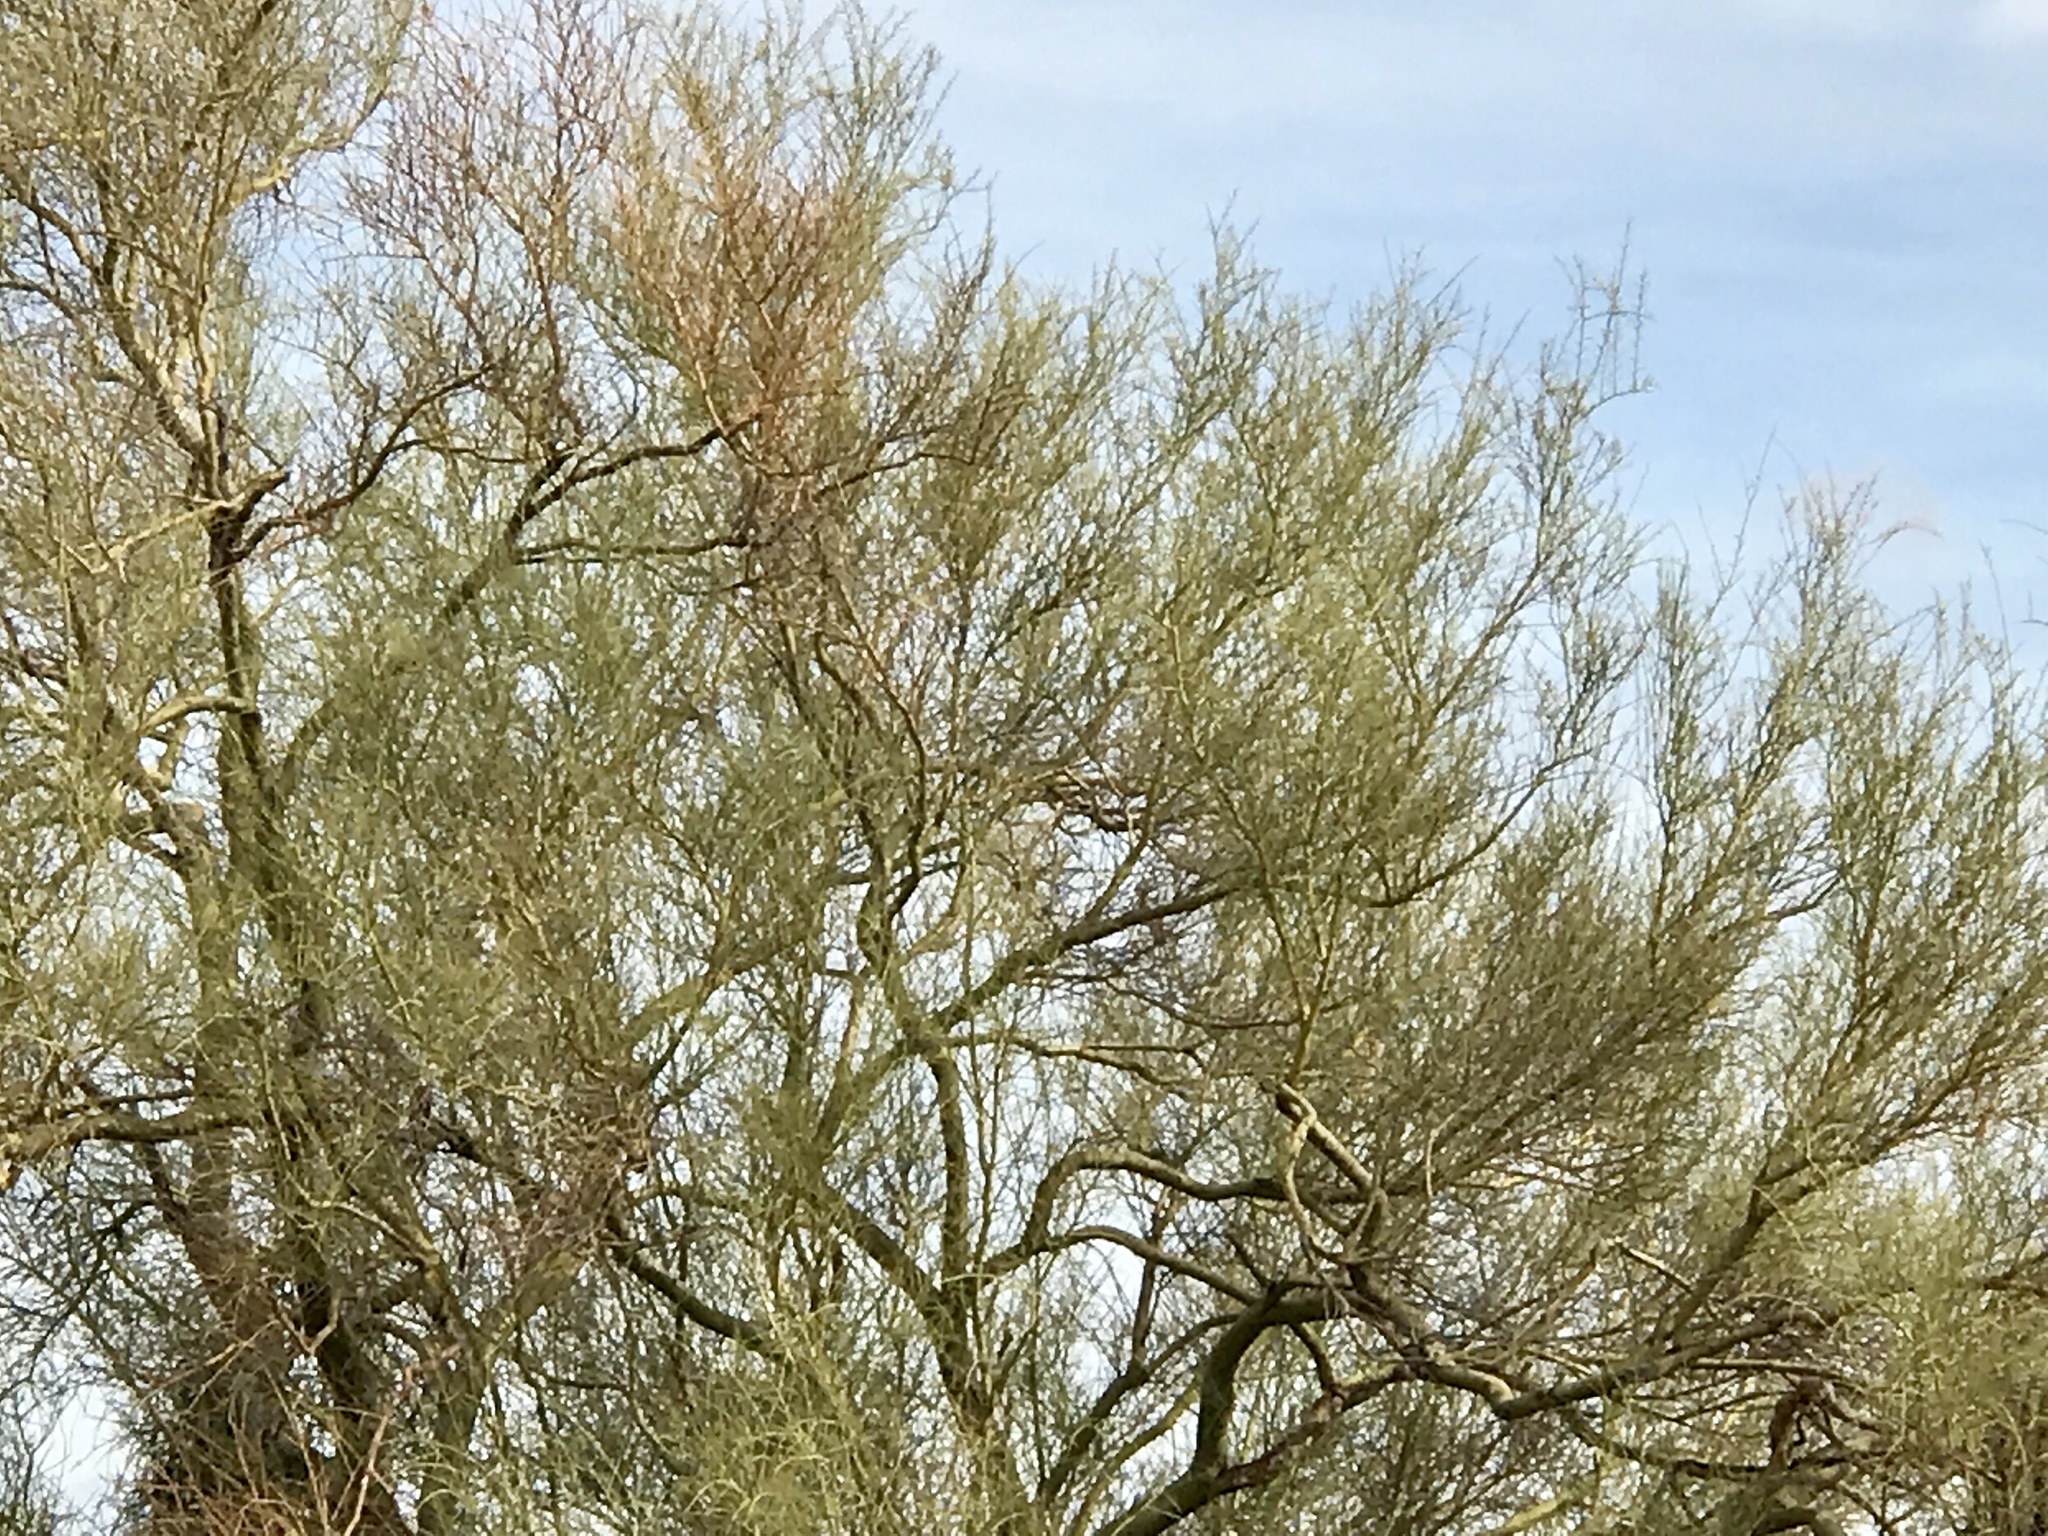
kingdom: Plantae
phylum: Tracheophyta
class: Magnoliopsida
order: Fabales
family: Fabaceae
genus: Parkinsonia
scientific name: Parkinsonia microphylla
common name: Yellow paloverde
